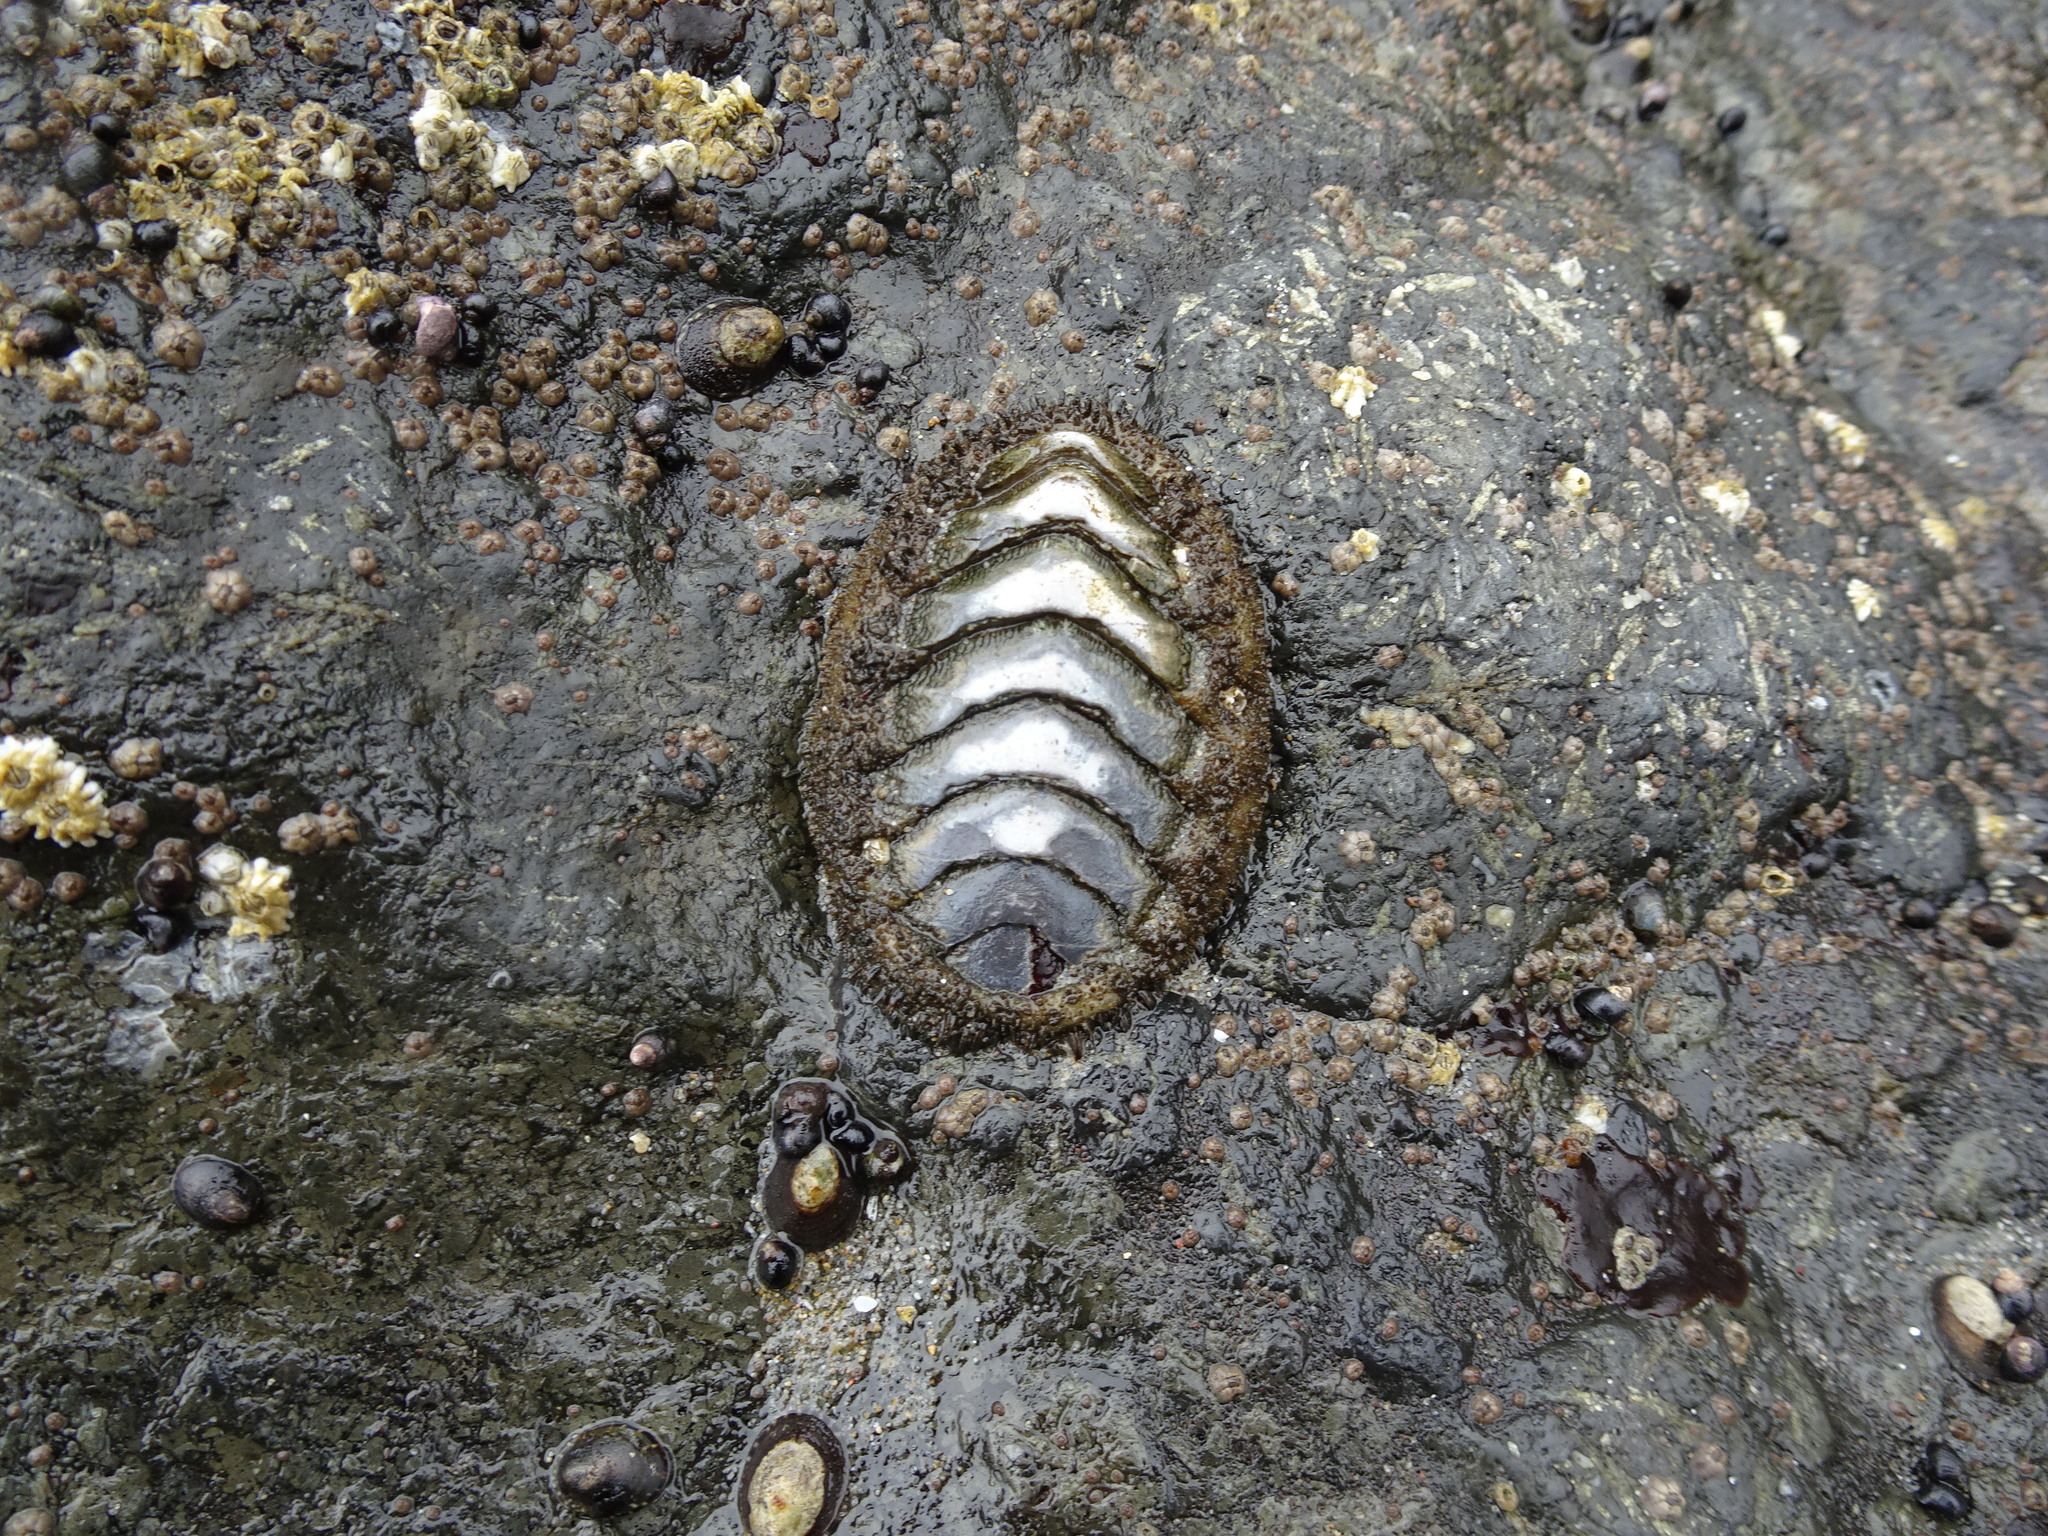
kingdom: Animalia
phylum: Mollusca
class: Polyplacophora
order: Chitonida
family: Mopaliidae
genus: Mopalia
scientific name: Mopalia muscosa
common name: Mossy chiton
